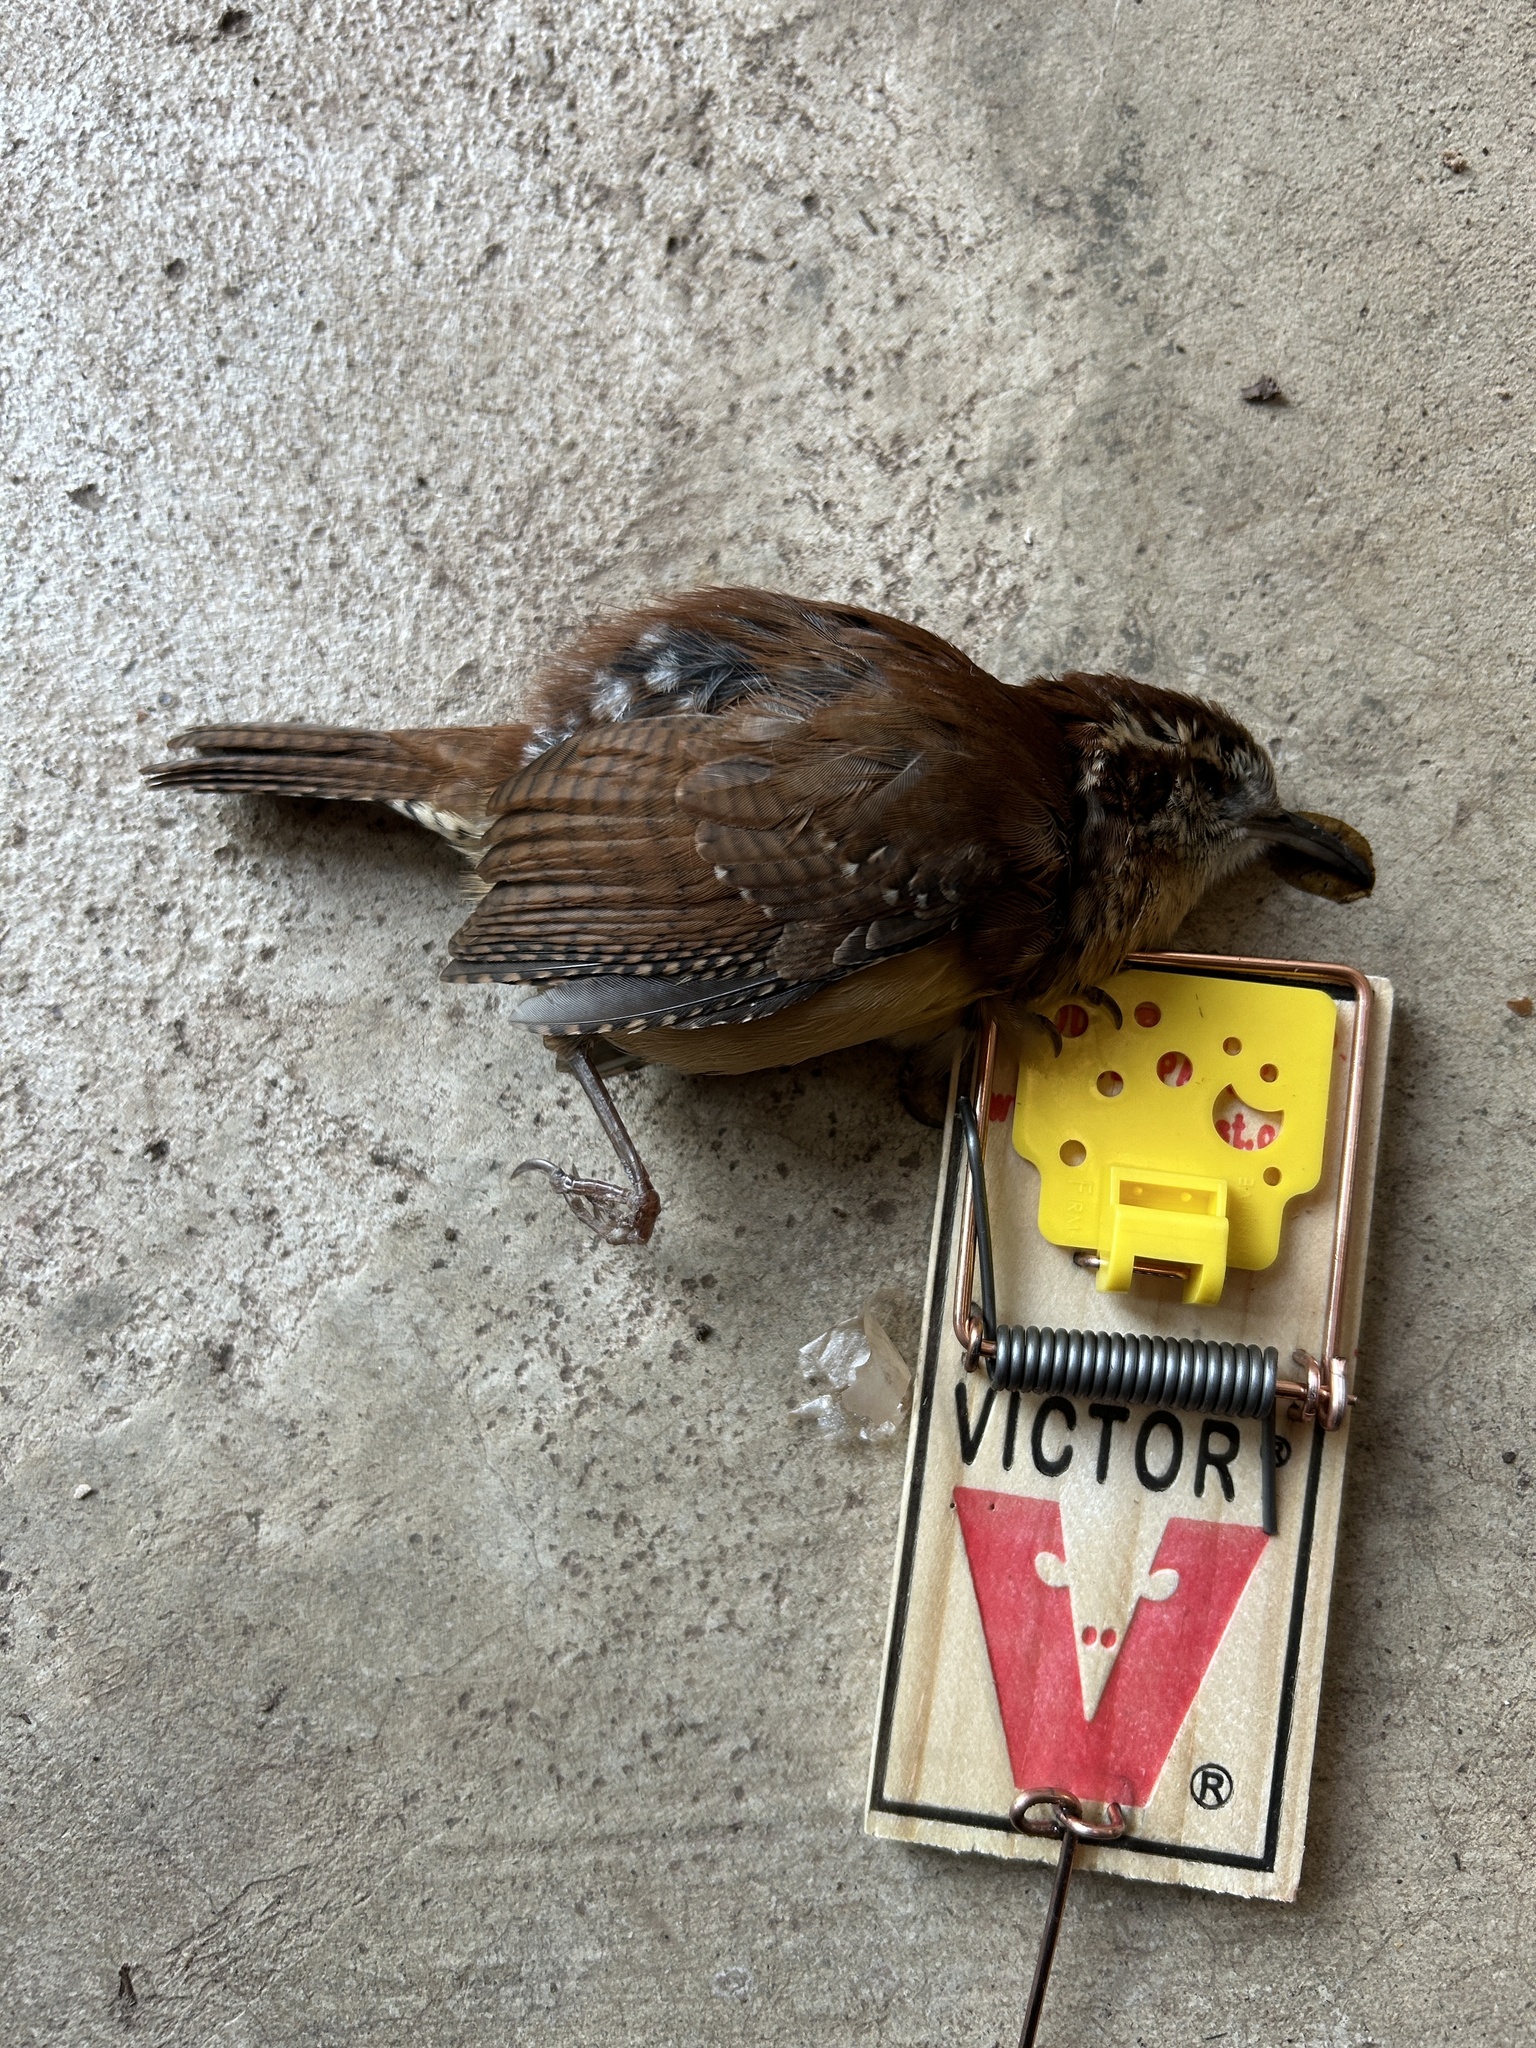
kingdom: Animalia
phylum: Chordata
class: Aves
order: Passeriformes
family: Troglodytidae
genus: Thryothorus
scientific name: Thryothorus ludovicianus
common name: Carolina wren
